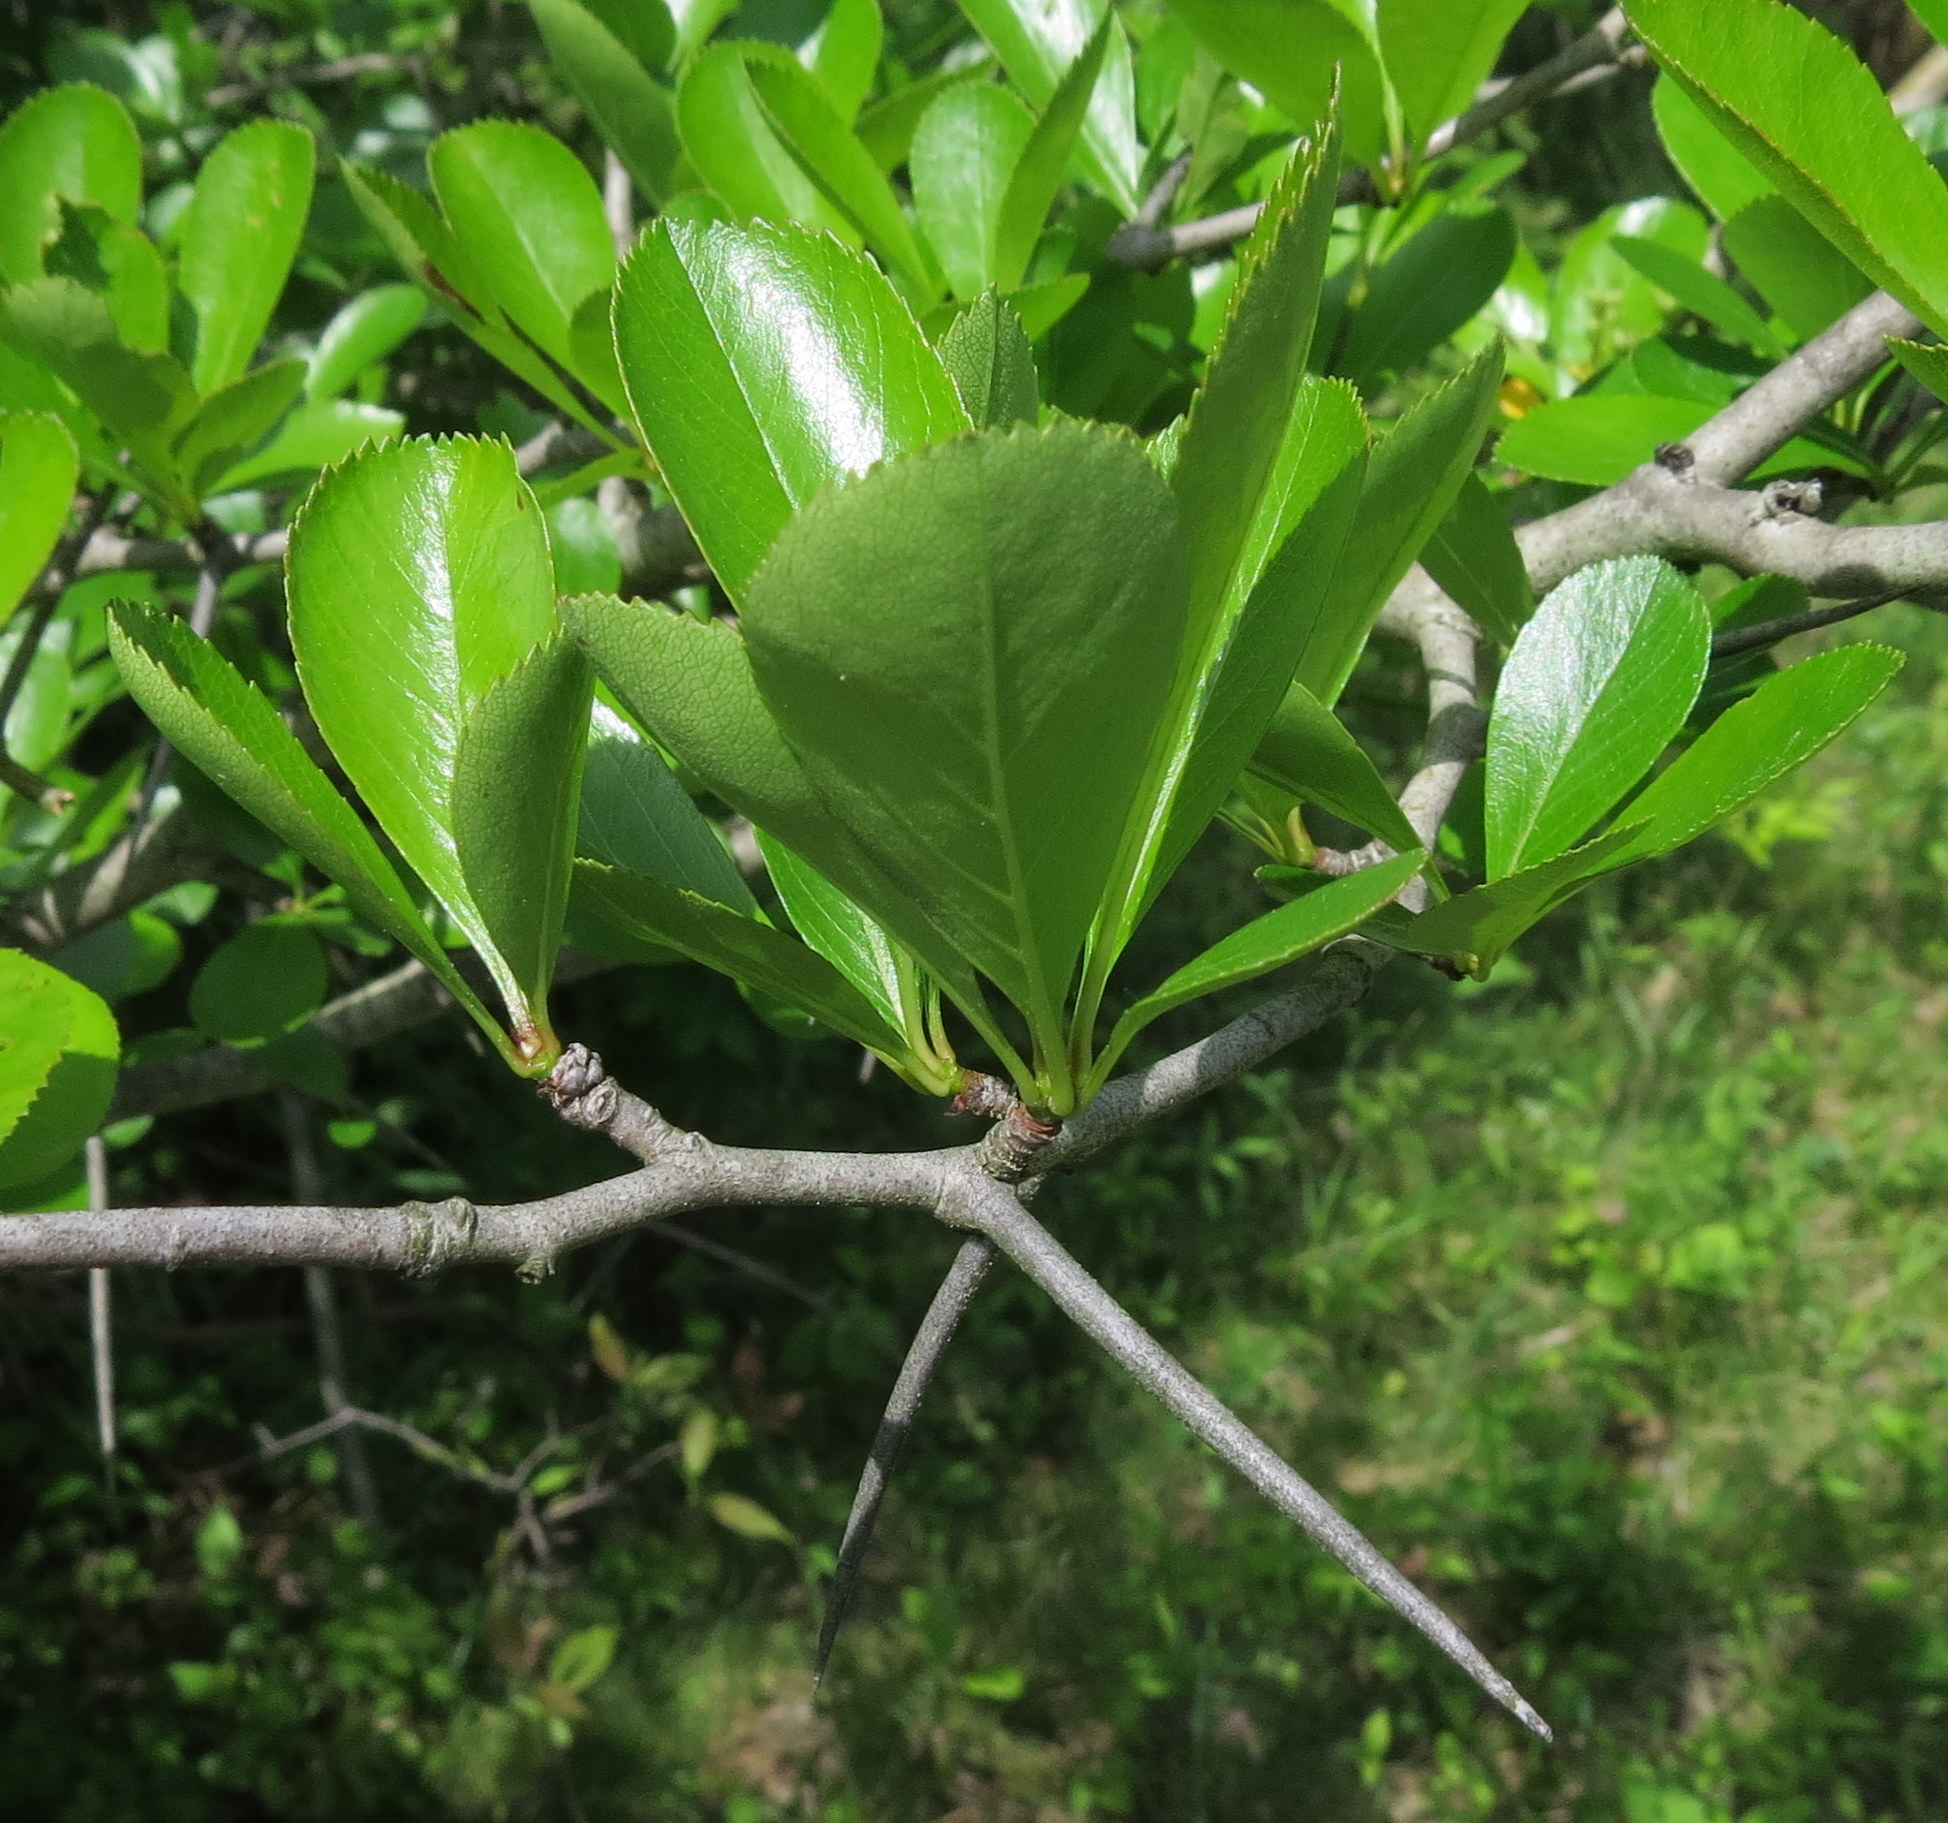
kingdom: Plantae
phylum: Tracheophyta
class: Magnoliopsida
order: Rosales
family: Rosaceae
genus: Crataegus
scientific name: Crataegus crus-galli
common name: Cockspurthorn
